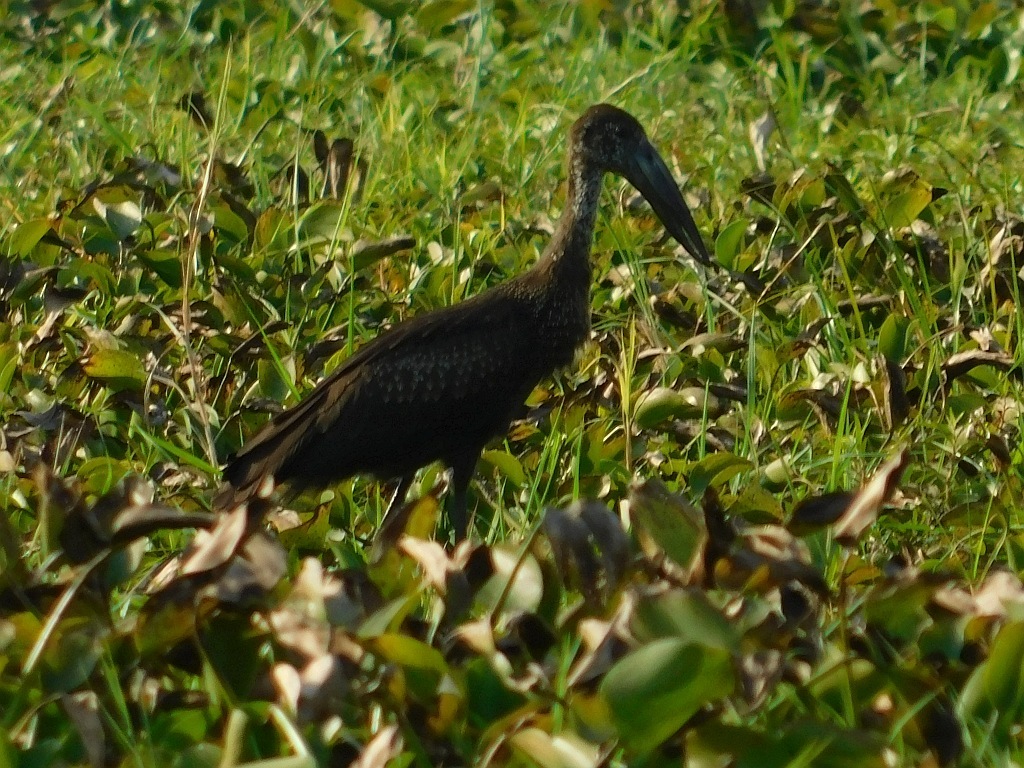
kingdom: Animalia
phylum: Chordata
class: Aves
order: Ciconiiformes
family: Ciconiidae
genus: Anastomus
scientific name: Anastomus lamelligerus
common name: African openbill
